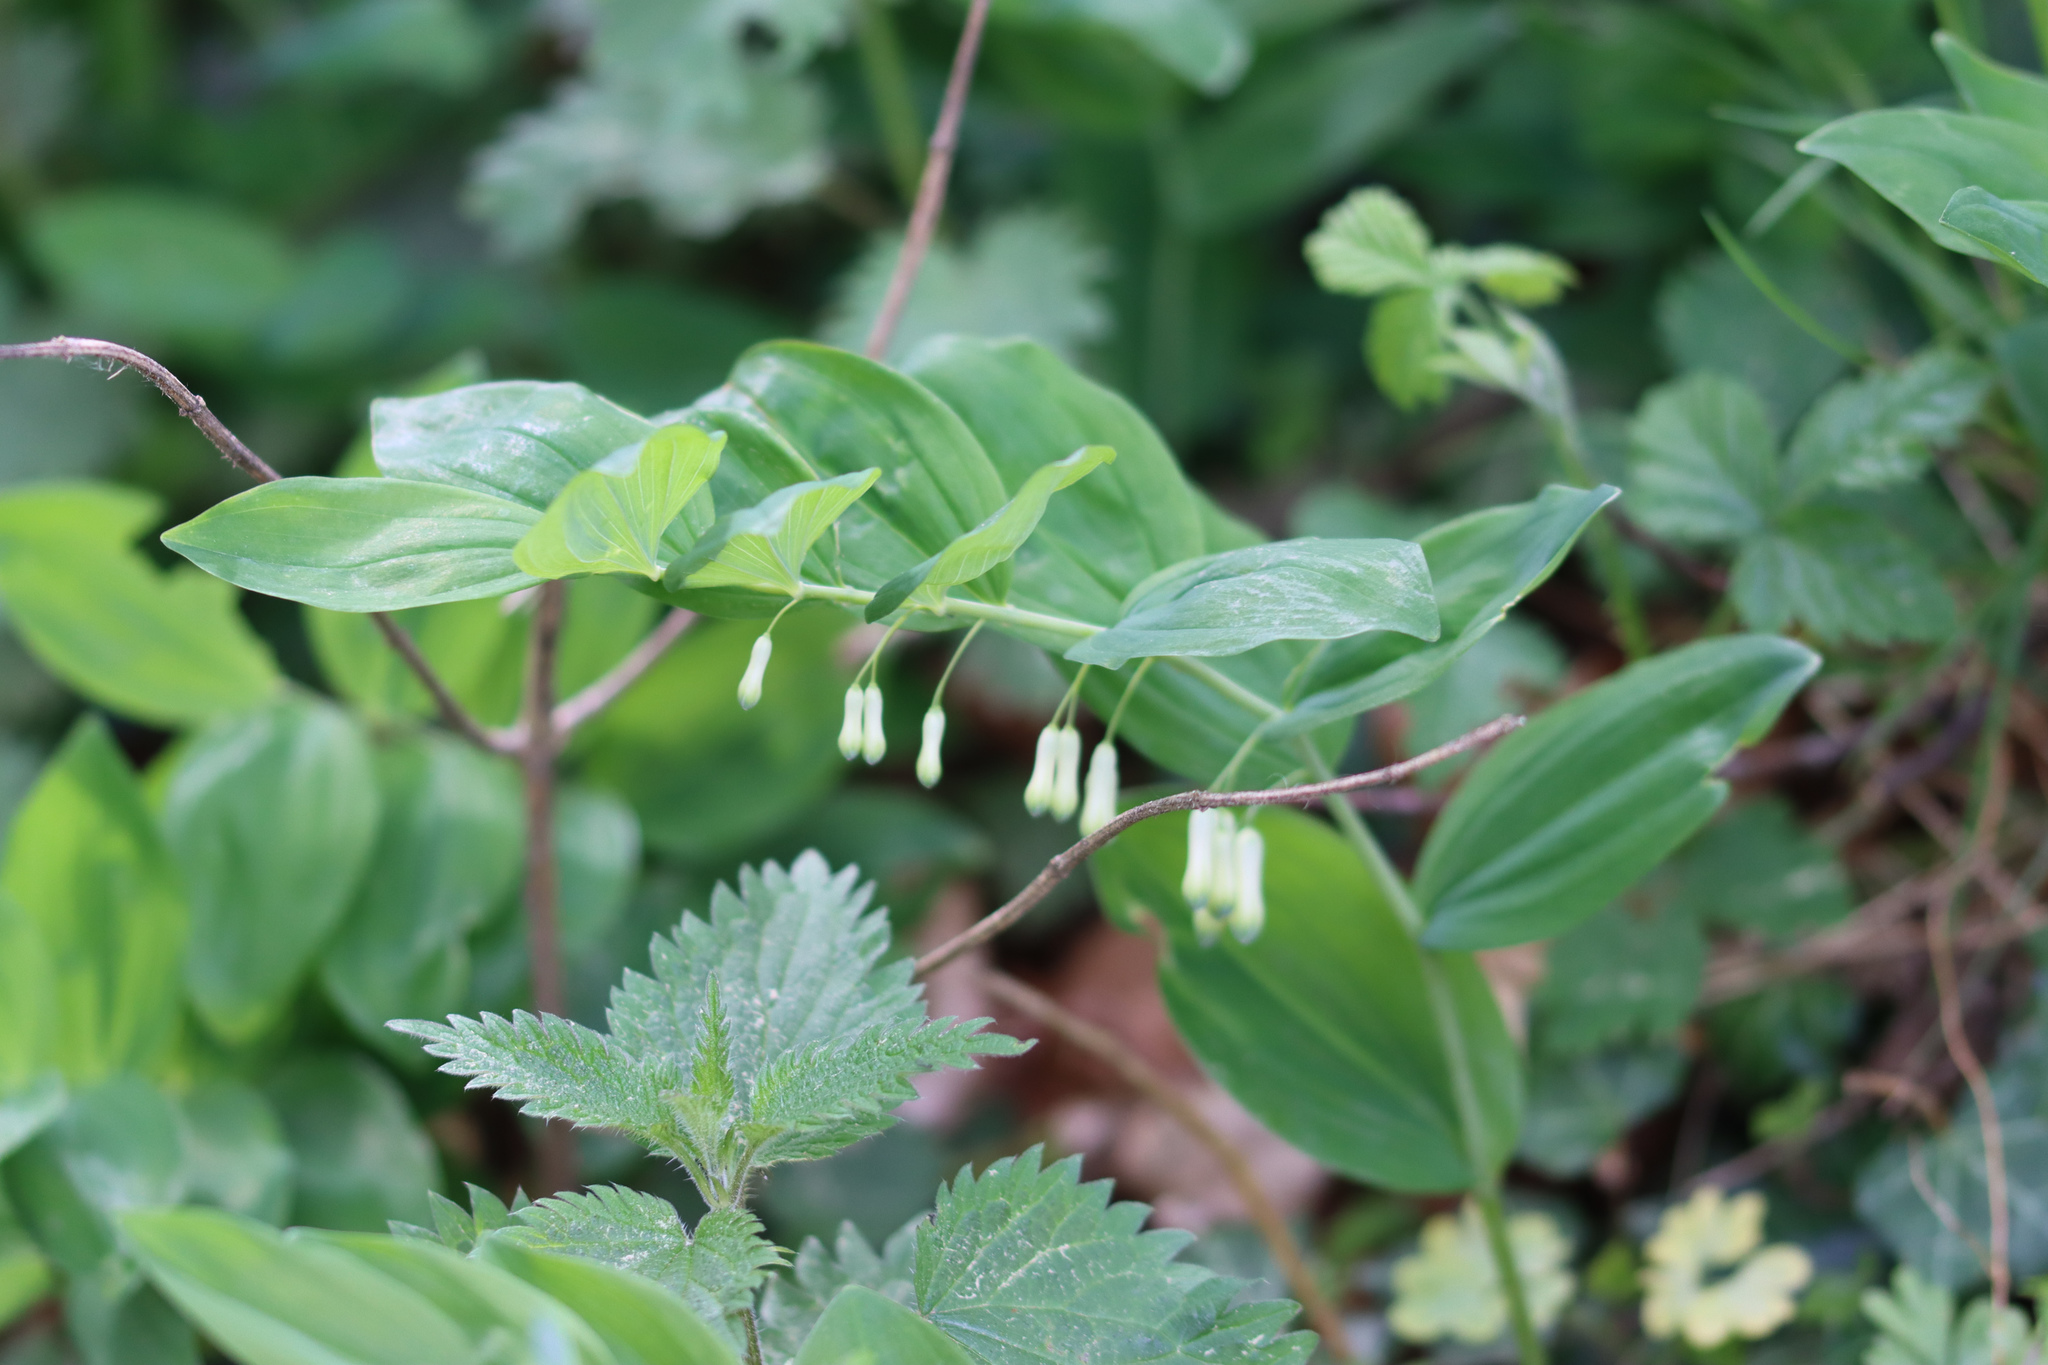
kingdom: Plantae
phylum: Tracheophyta
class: Liliopsida
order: Asparagales
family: Asparagaceae
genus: Polygonatum
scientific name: Polygonatum multiflorum
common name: Solomon's-seal
